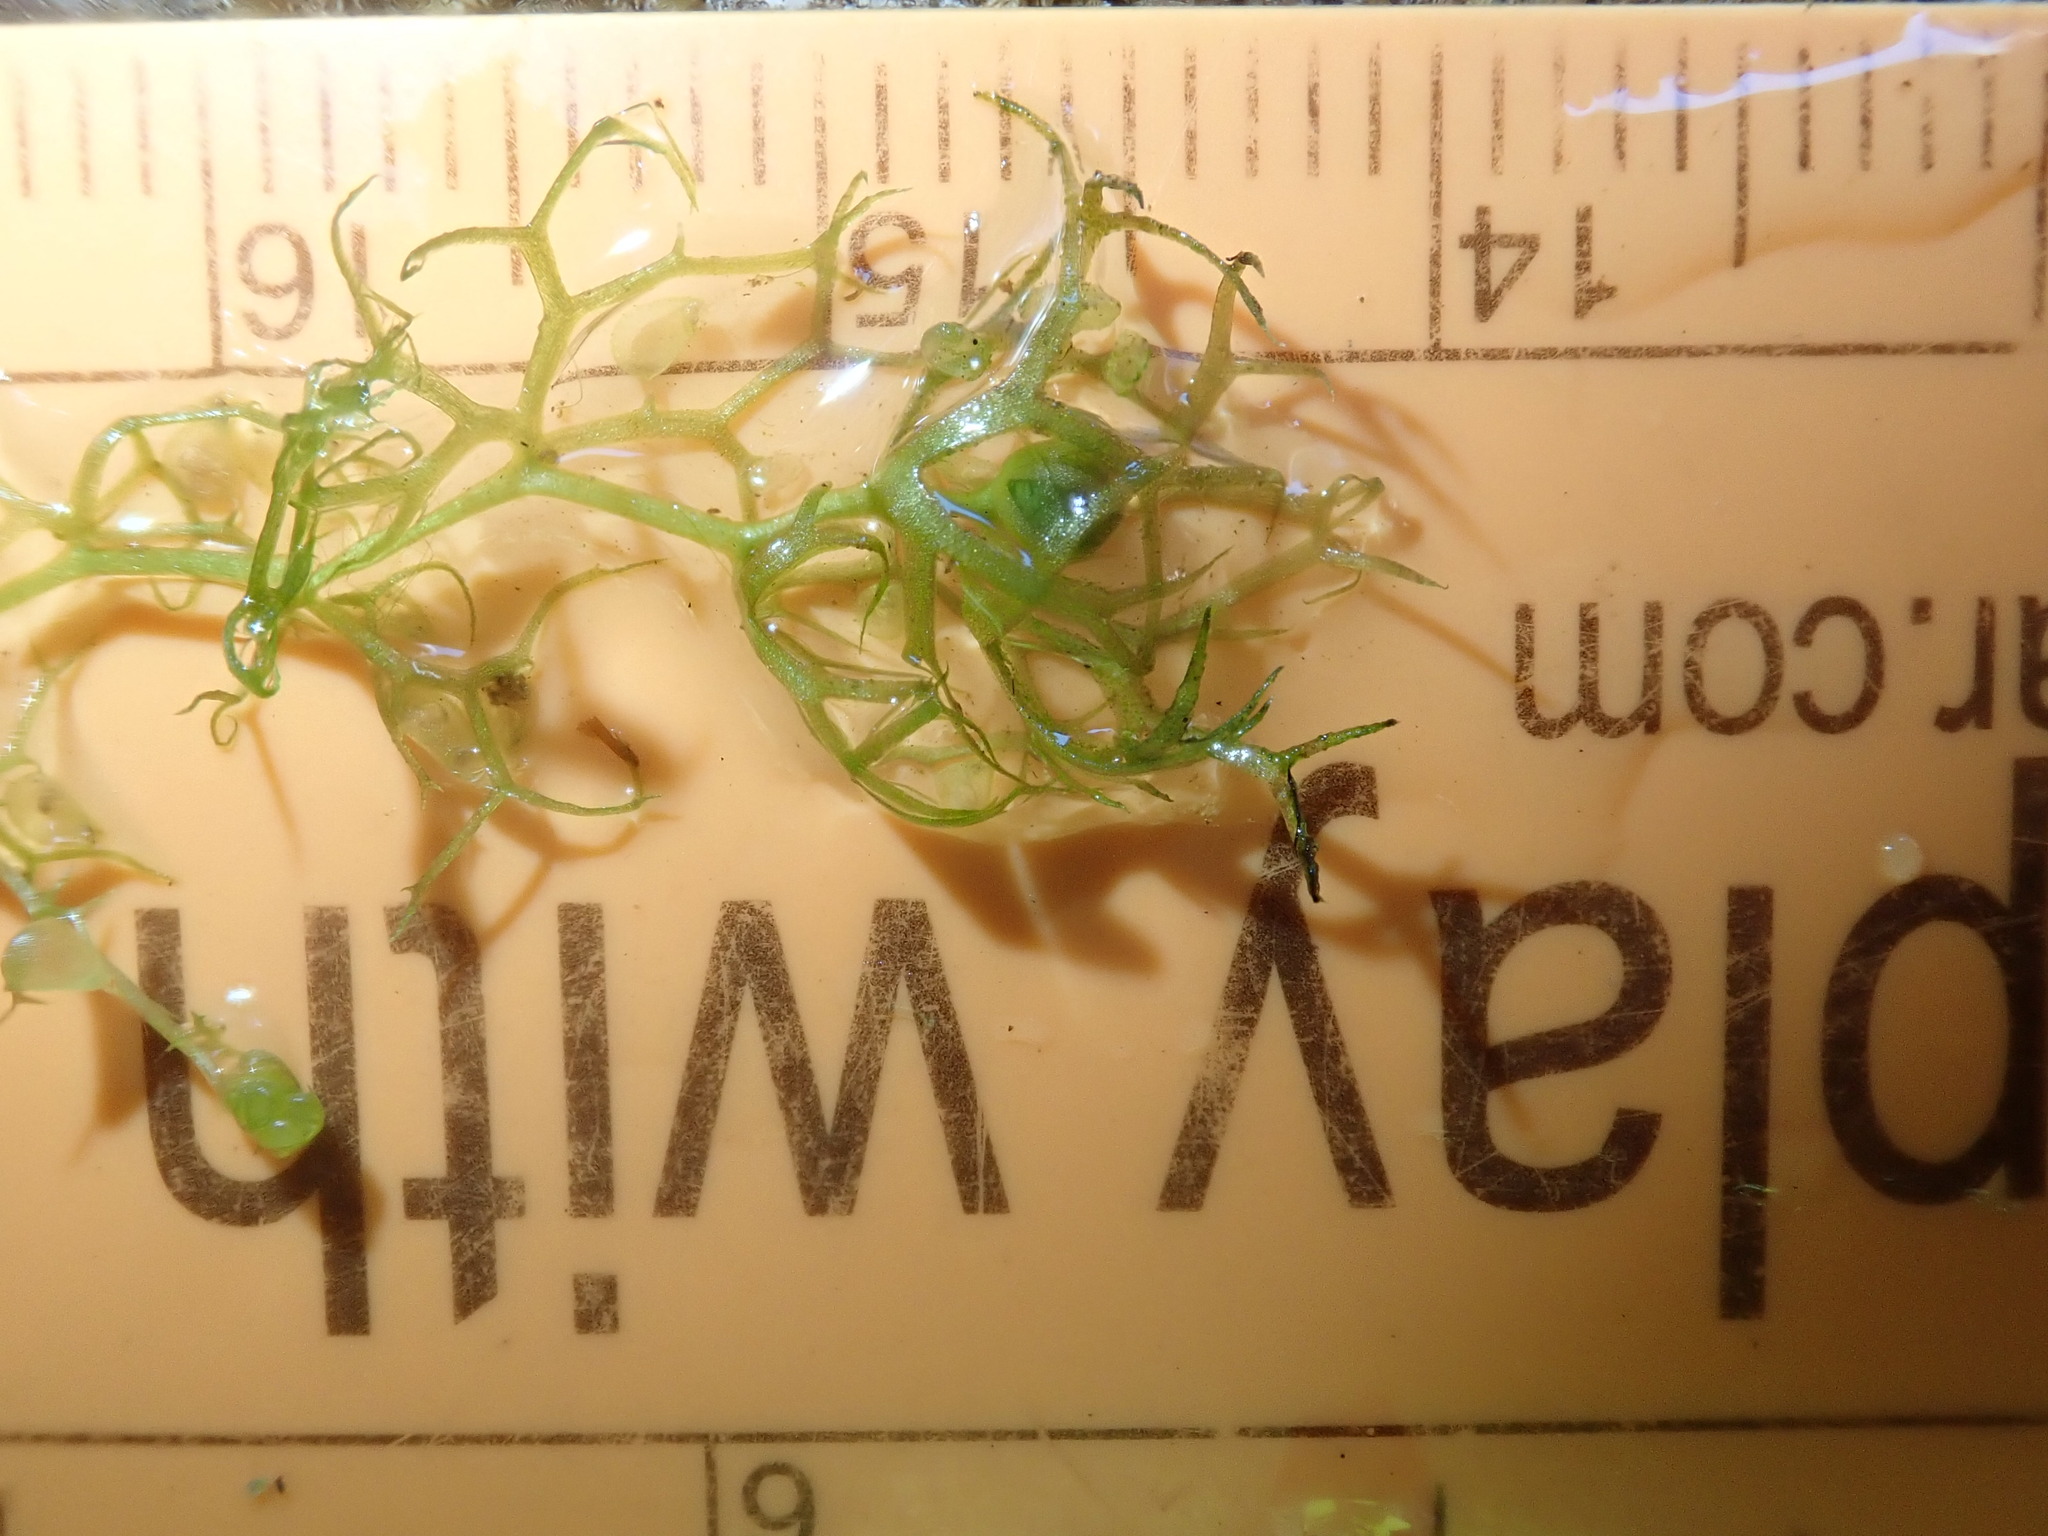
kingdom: Plantae
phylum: Tracheophyta
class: Magnoliopsida
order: Lamiales
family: Lentibulariaceae
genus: Utricularia
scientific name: Utricularia minor
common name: Lesser bladderwort
